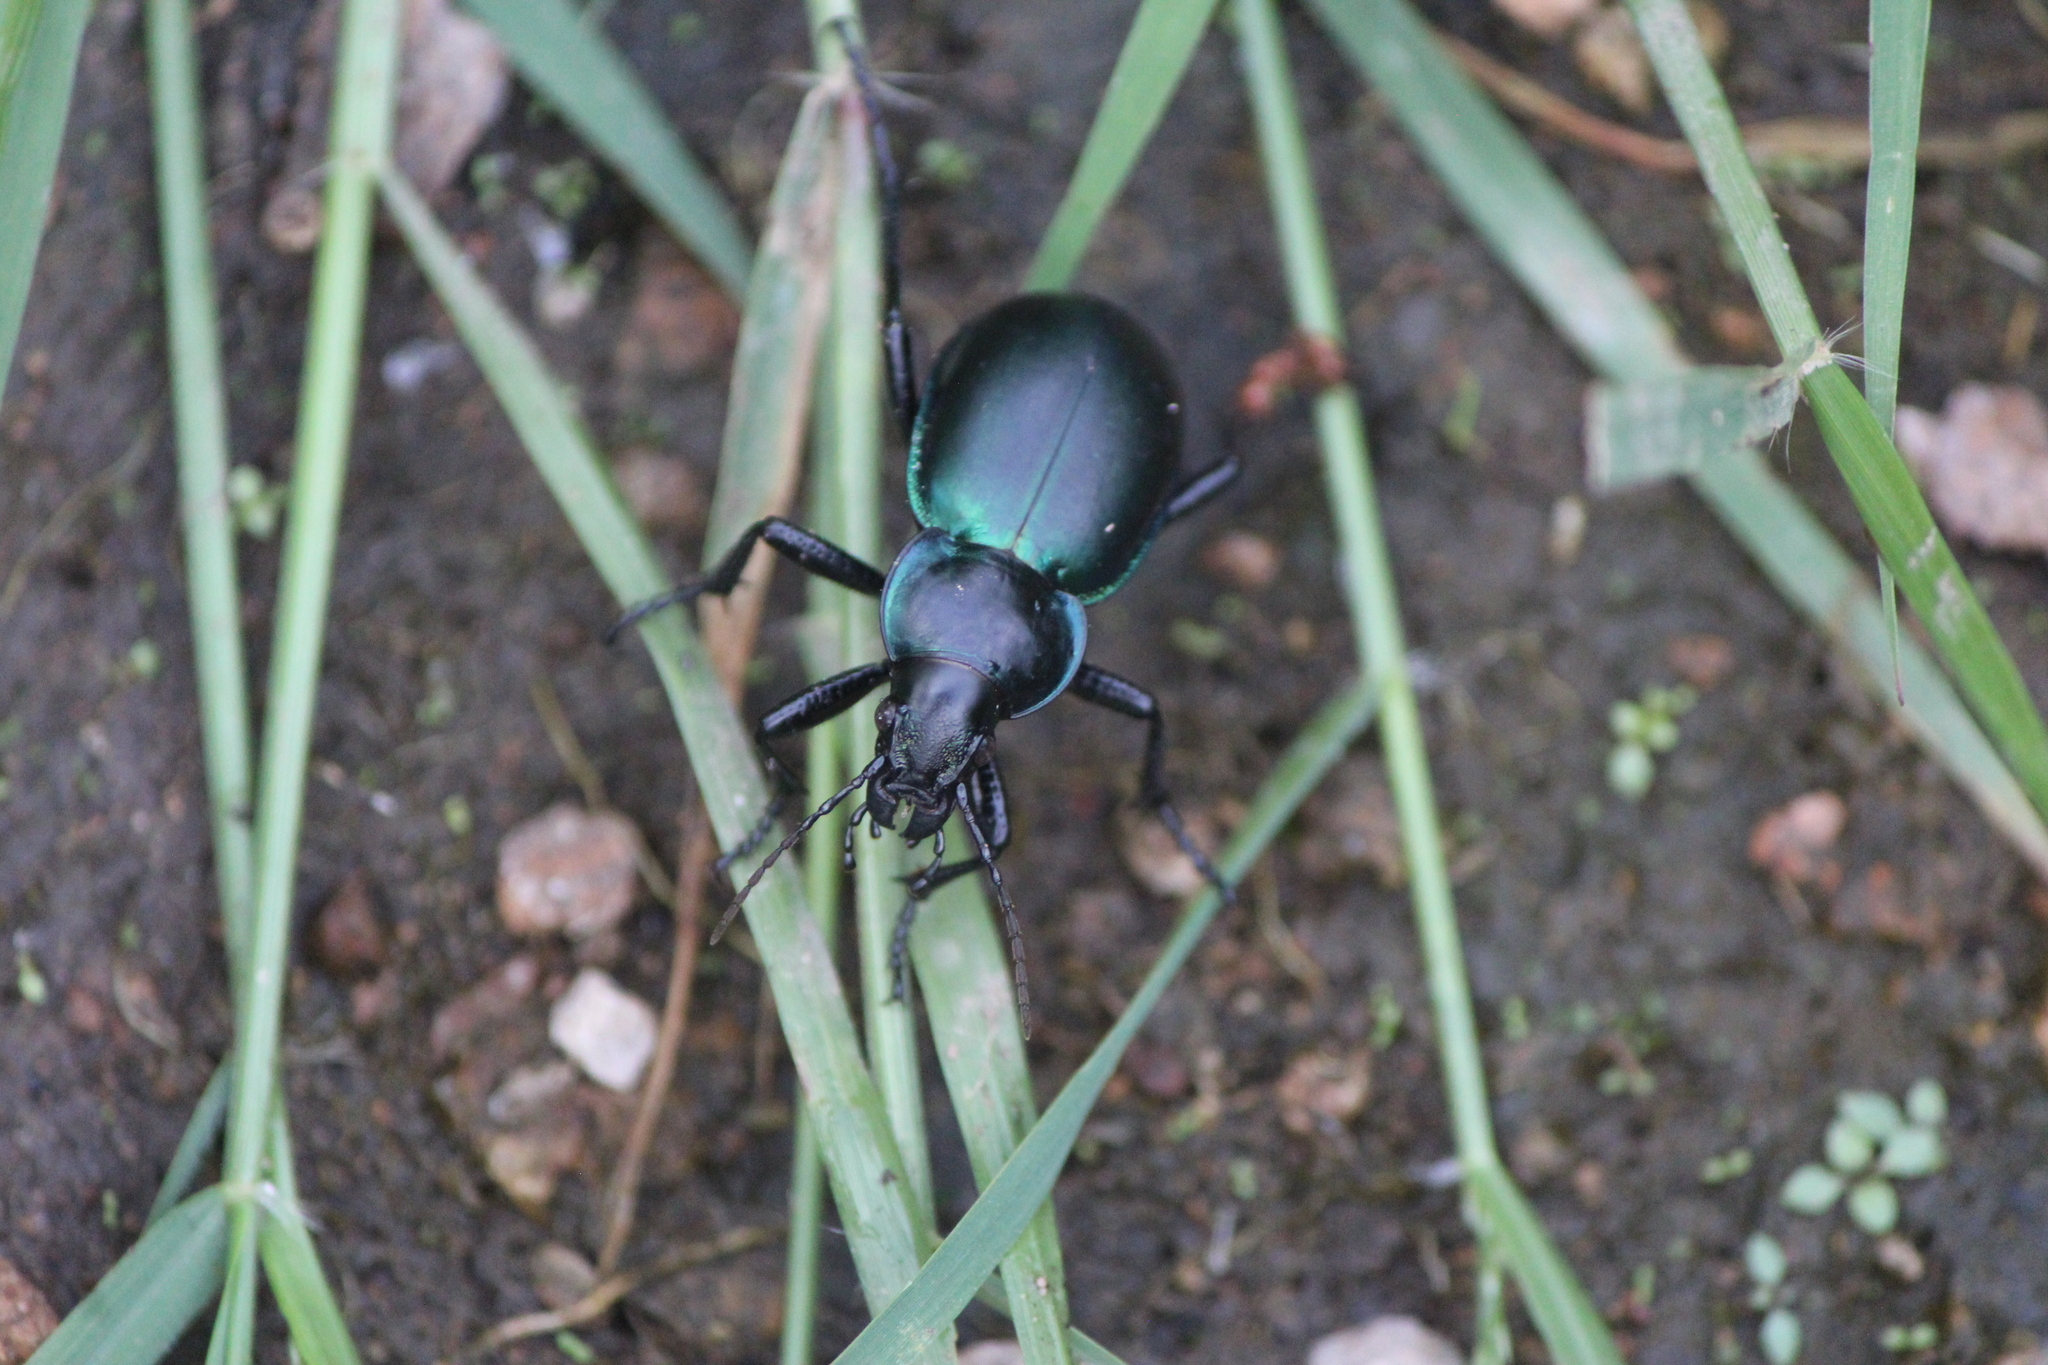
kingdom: Animalia
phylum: Arthropoda
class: Insecta
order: Coleoptera
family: Carabidae
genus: Calosoma
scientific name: Calosoma atrovirens
